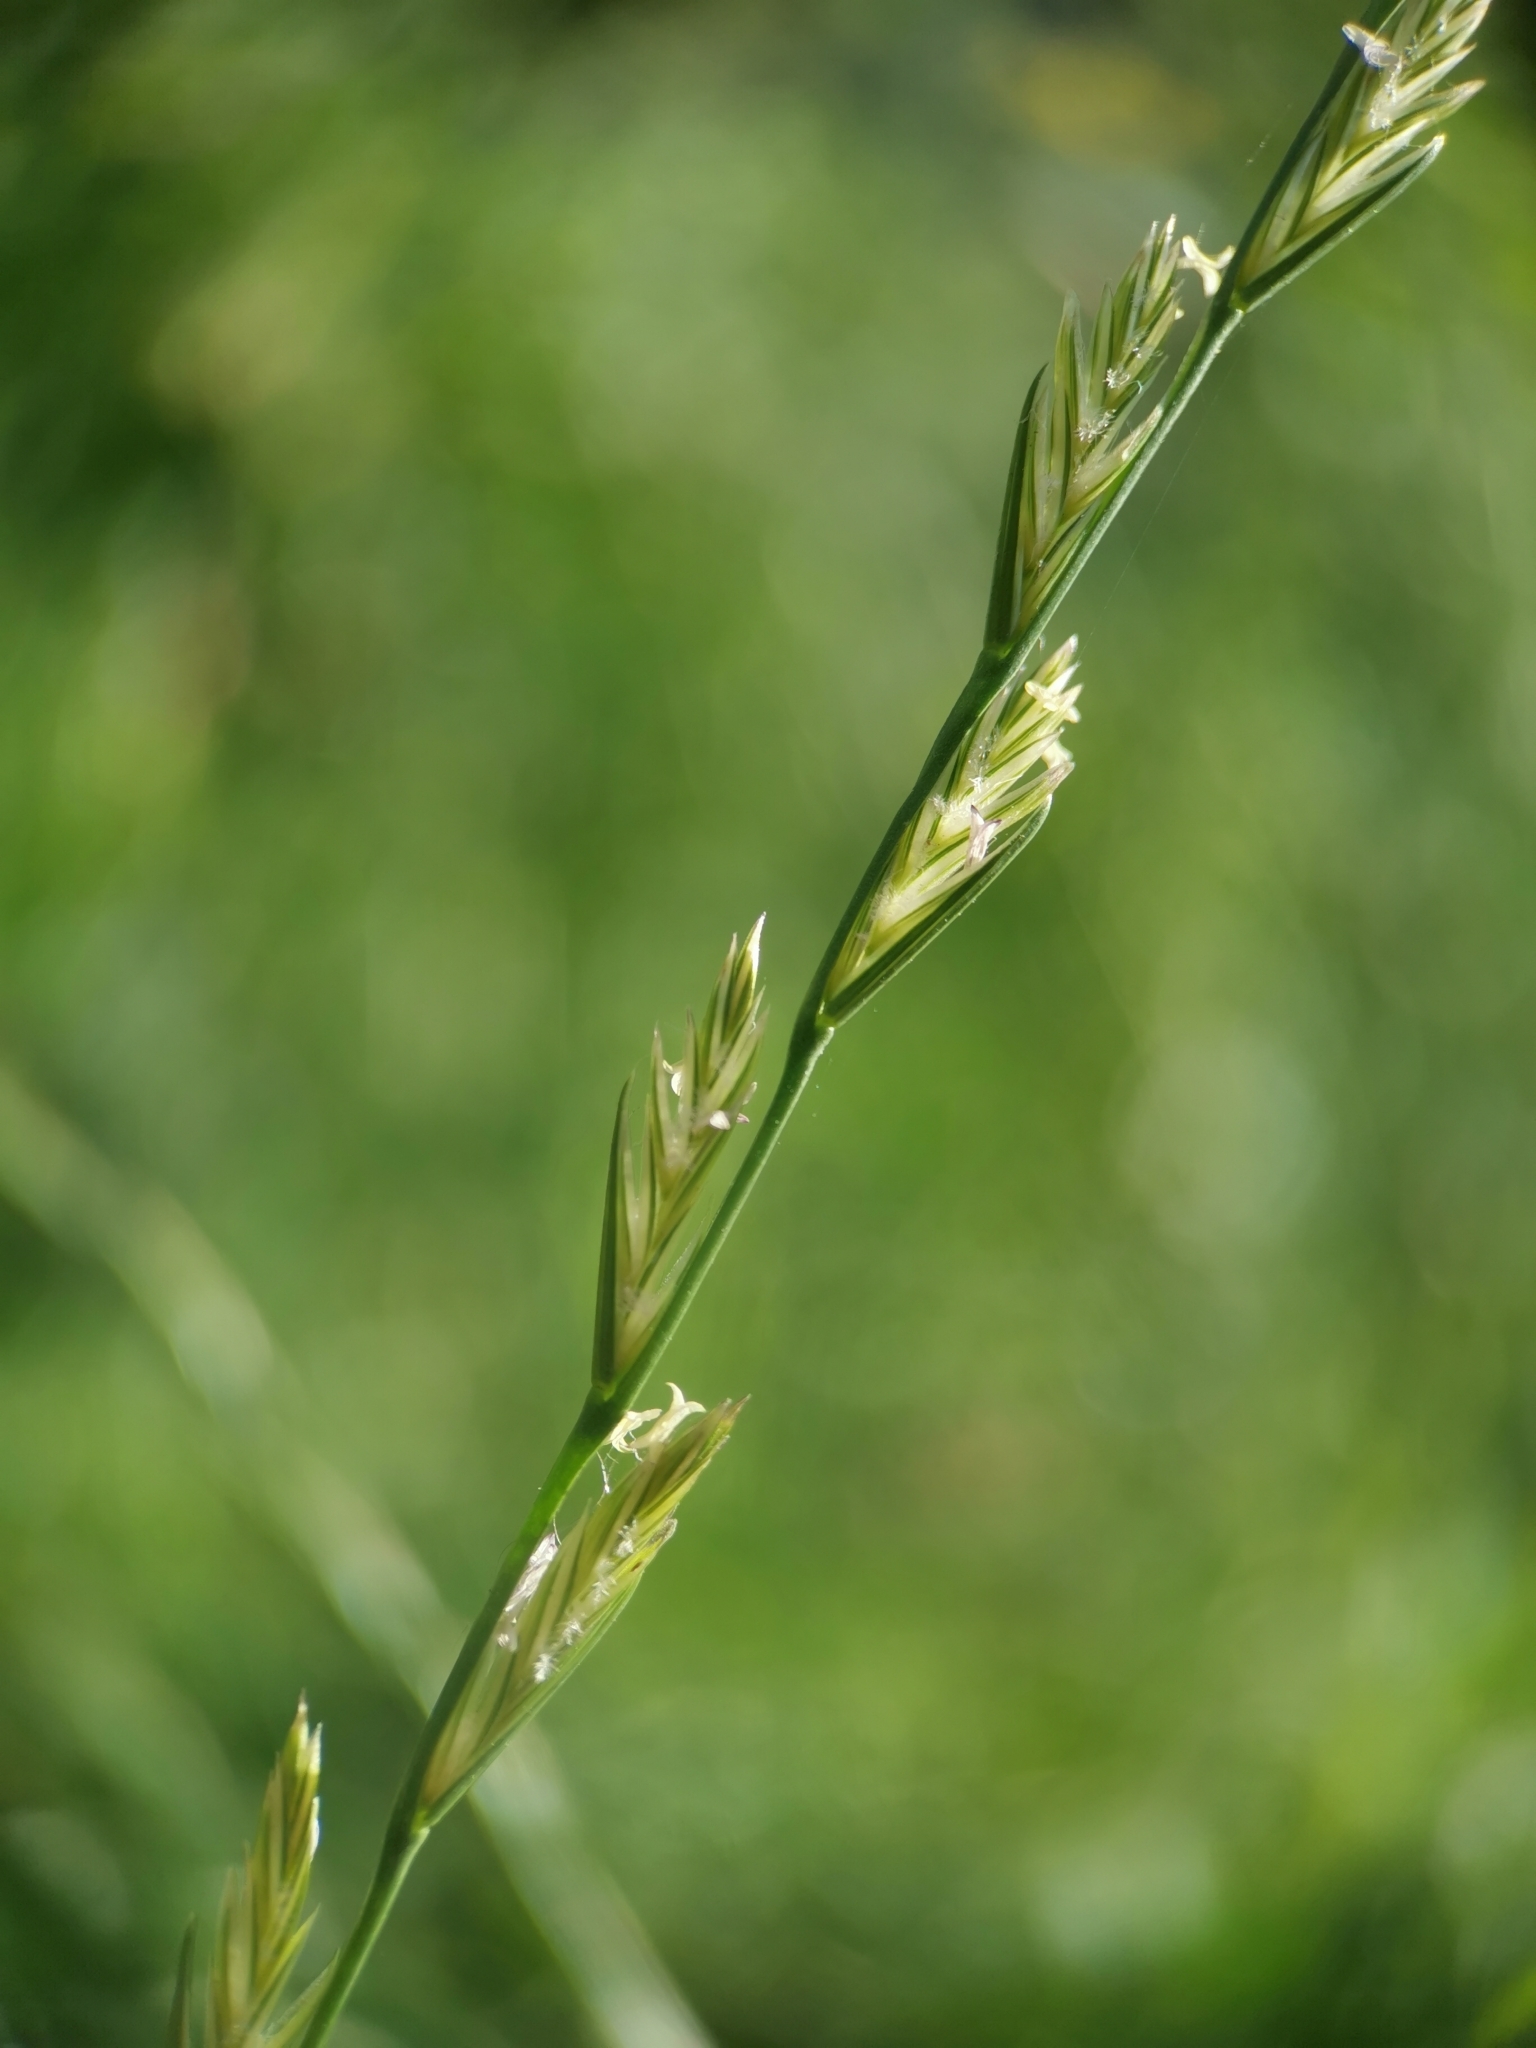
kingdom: Plantae
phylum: Tracheophyta
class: Liliopsida
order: Poales
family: Poaceae
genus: Lolium
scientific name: Lolium perenne
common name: Perennial ryegrass
